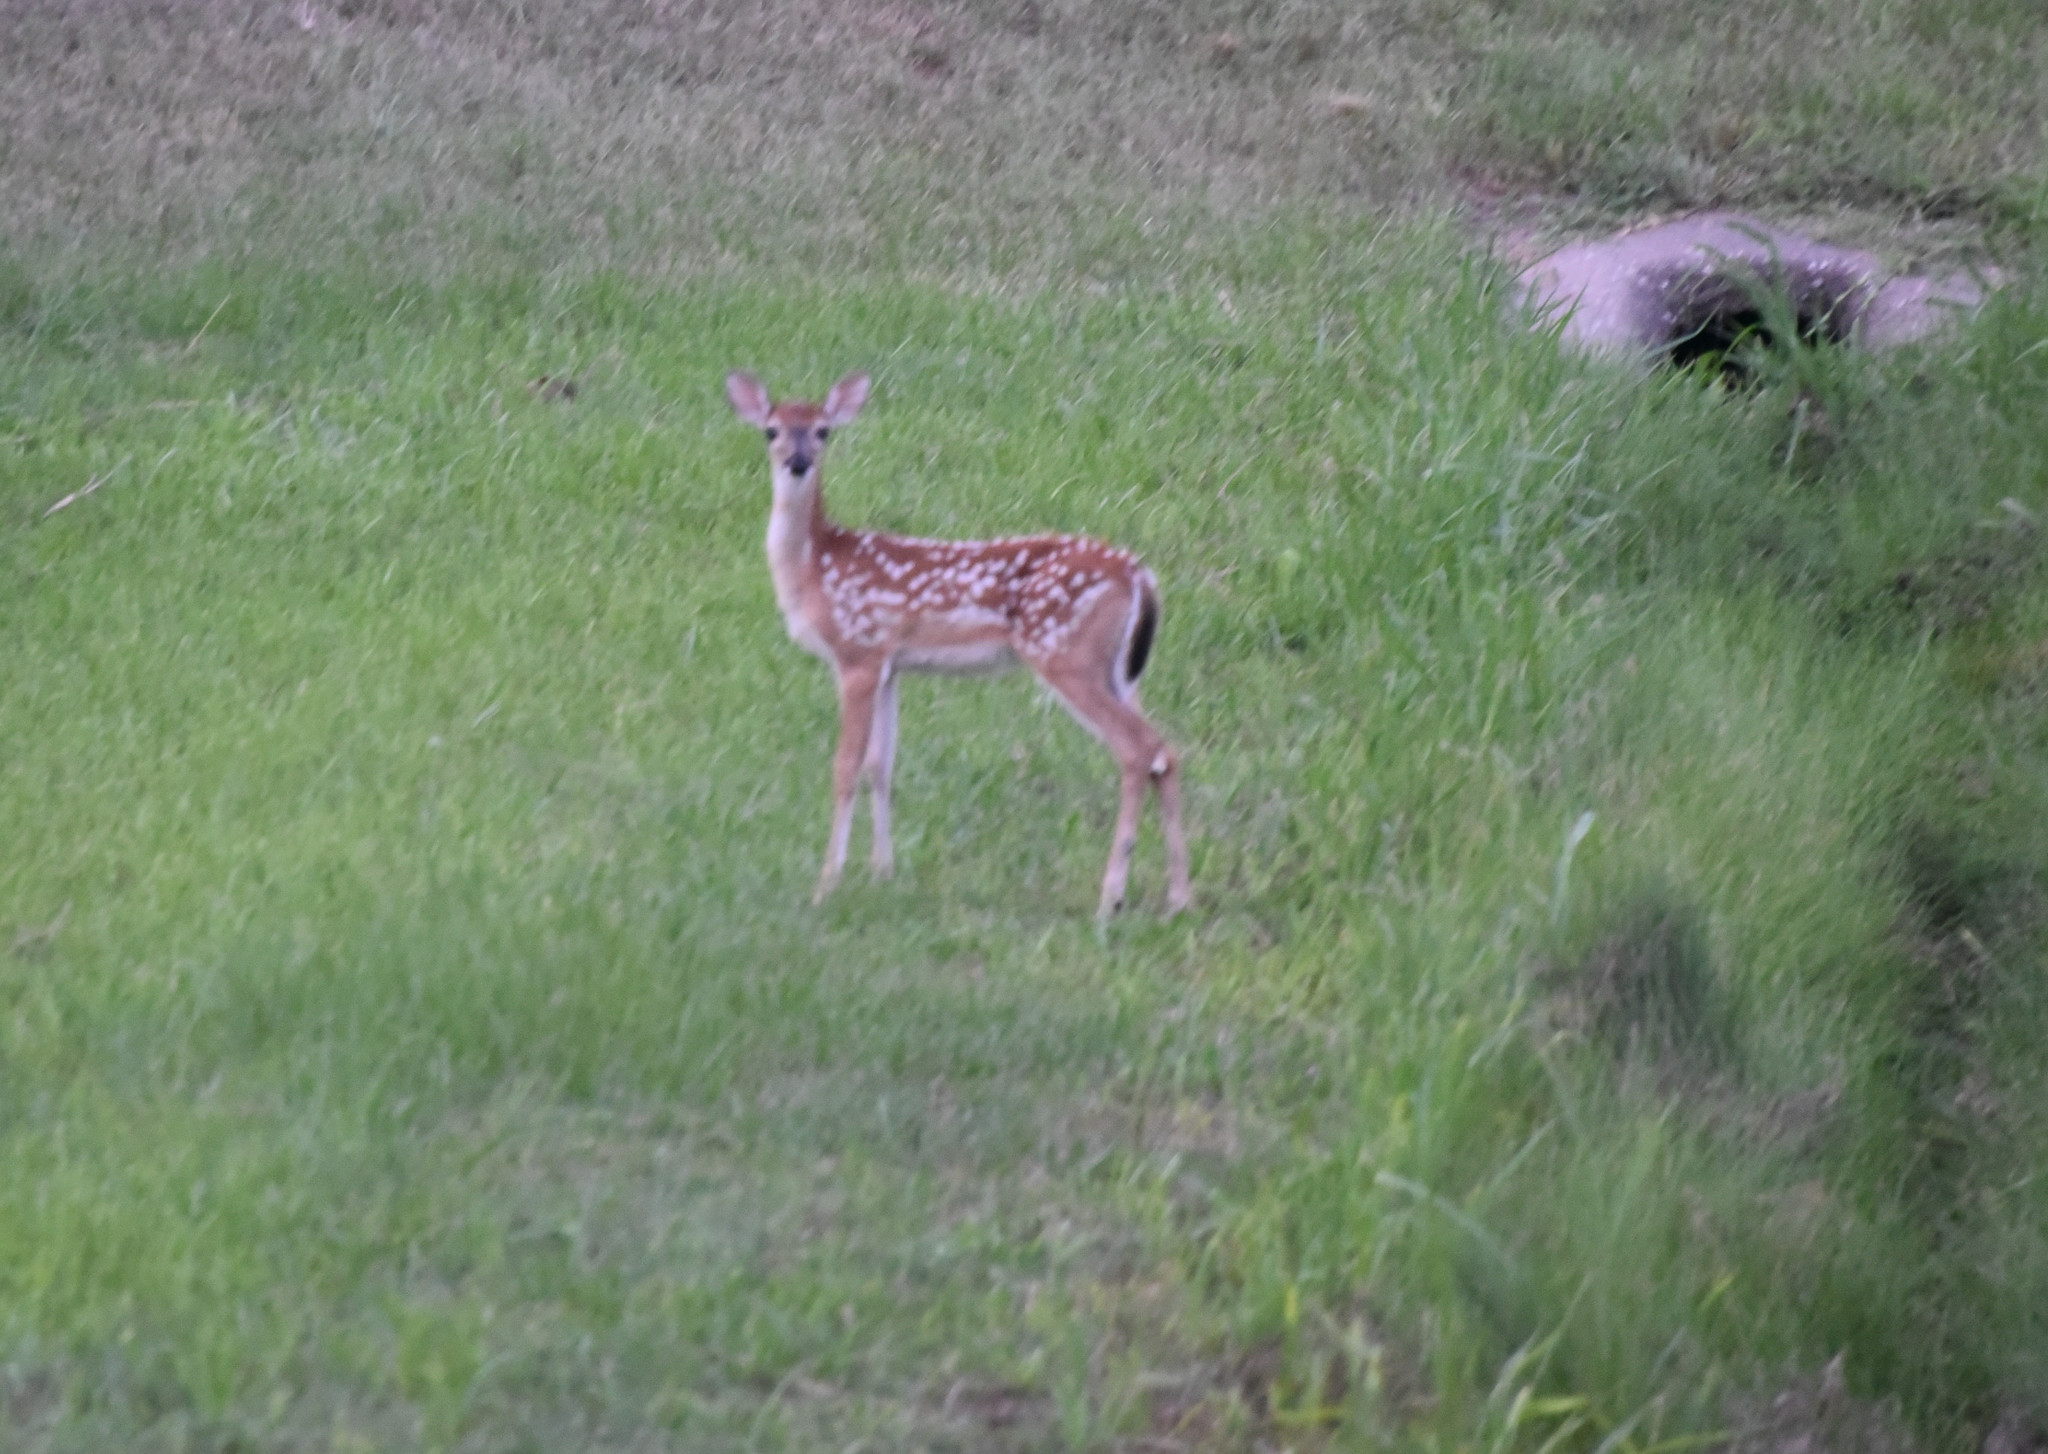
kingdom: Animalia
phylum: Chordata
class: Mammalia
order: Artiodactyla
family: Cervidae
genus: Odocoileus
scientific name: Odocoileus virginianus
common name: White-tailed deer
